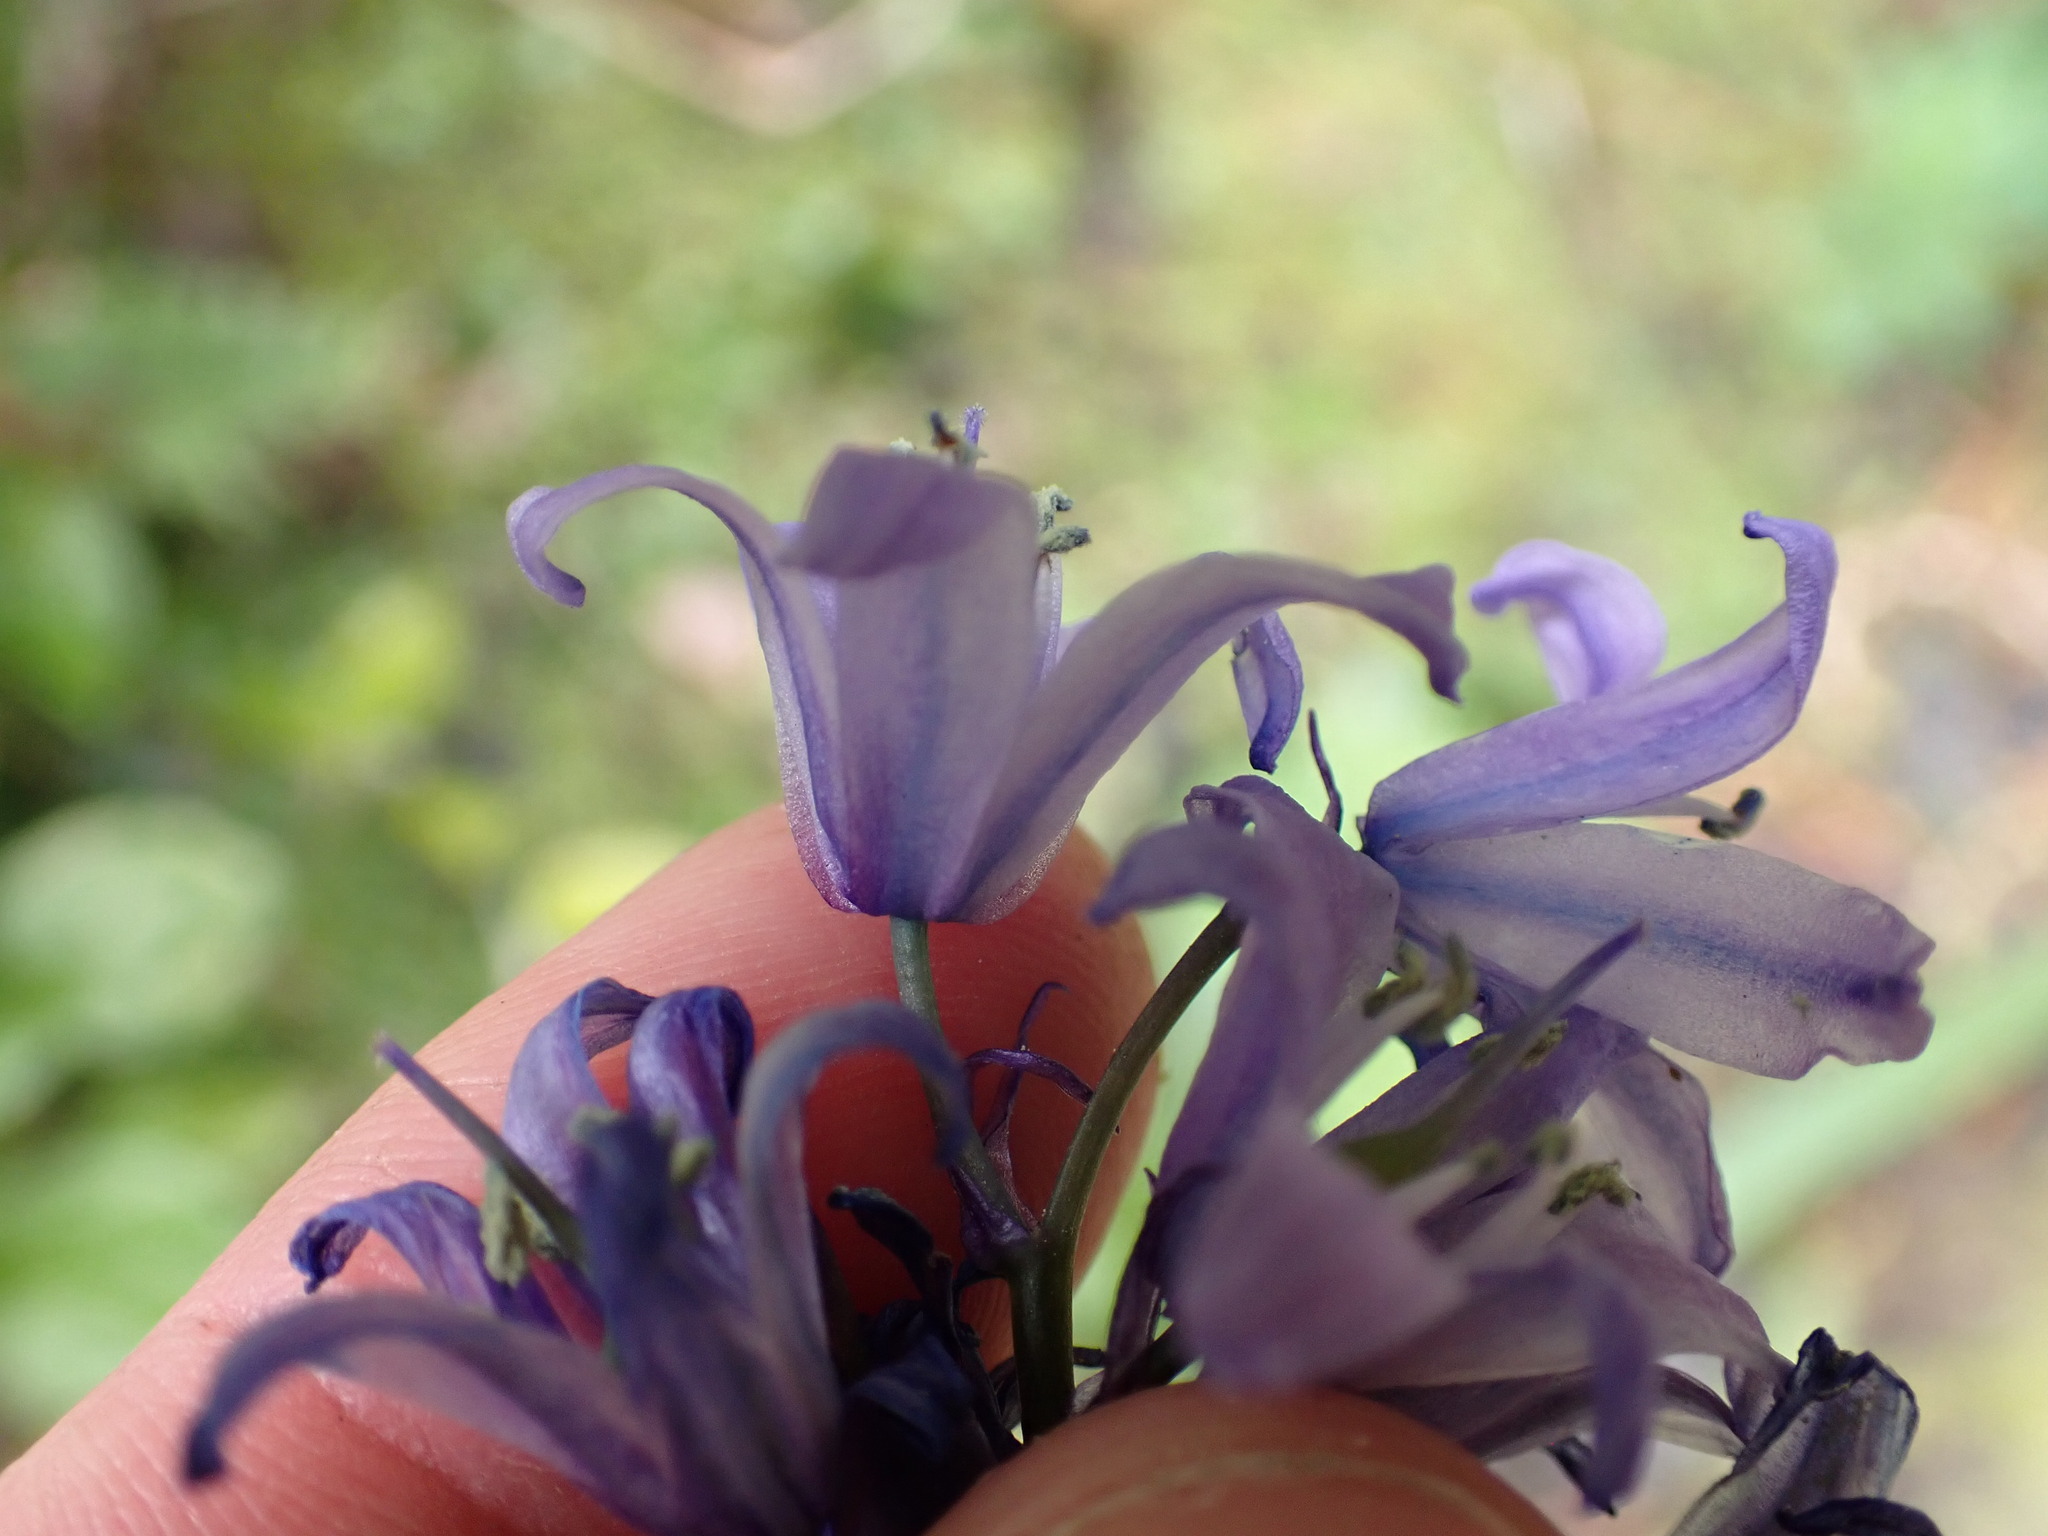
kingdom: Plantae
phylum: Tracheophyta
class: Liliopsida
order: Asparagales
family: Asparagaceae
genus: Hyacinthoides
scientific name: Hyacinthoides massartiana
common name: Hyacinthoides
